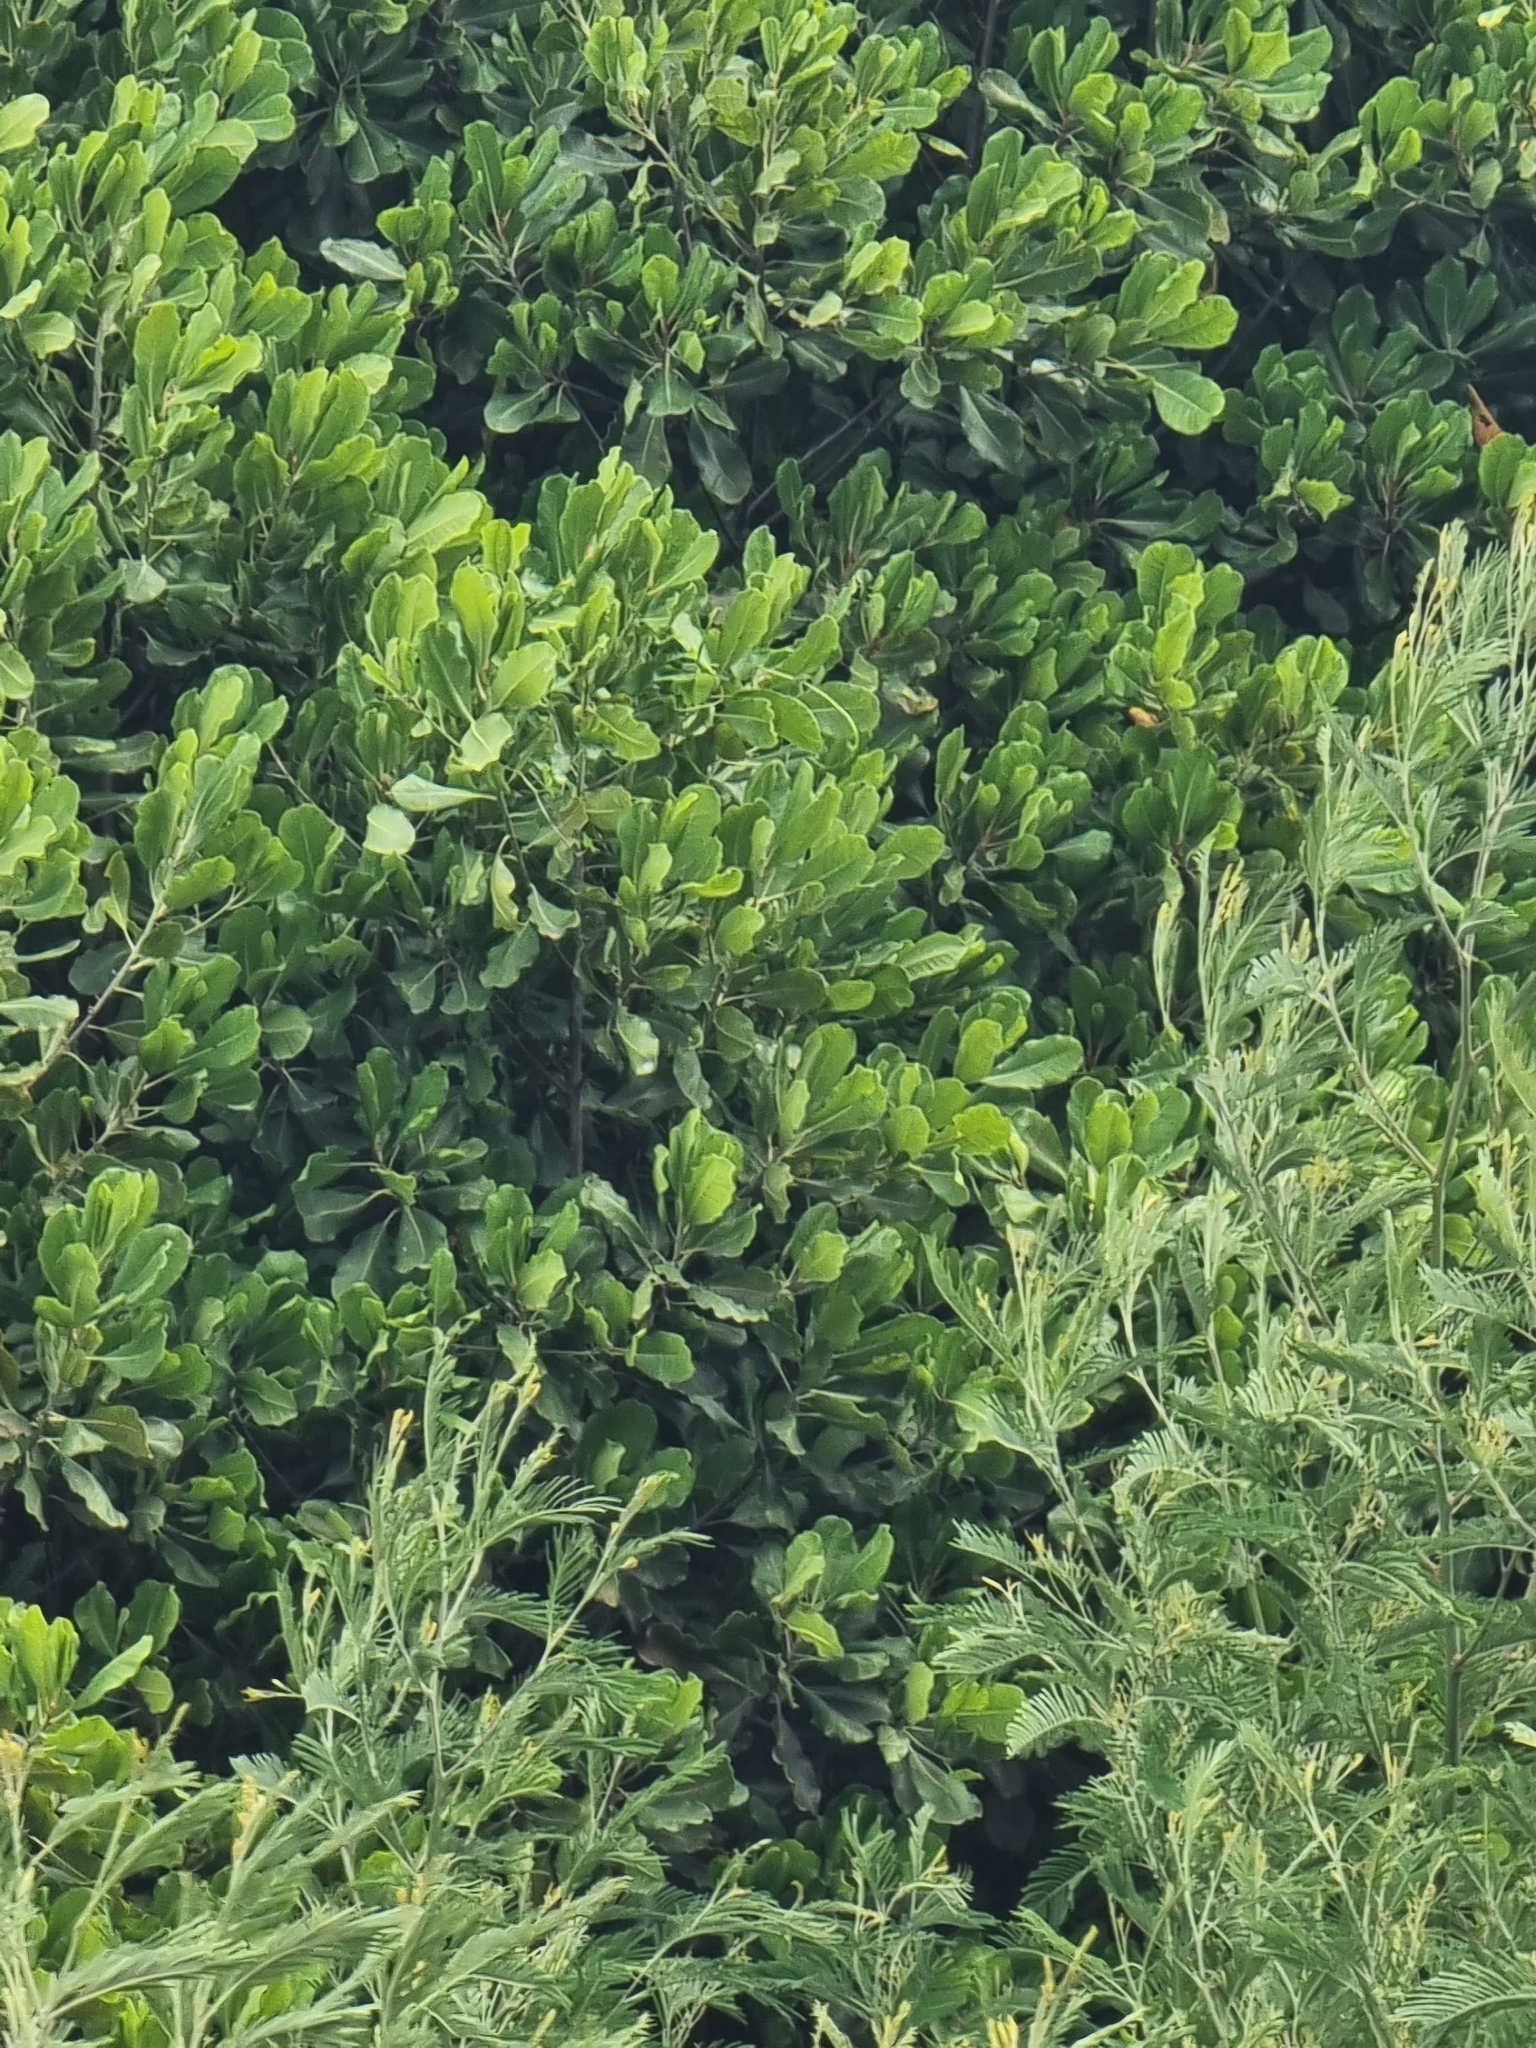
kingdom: Plantae
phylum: Tracheophyta
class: Magnoliopsida
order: Ericales
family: Sapotaceae
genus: Sideroxylon
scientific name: Sideroxylon mirmulans
